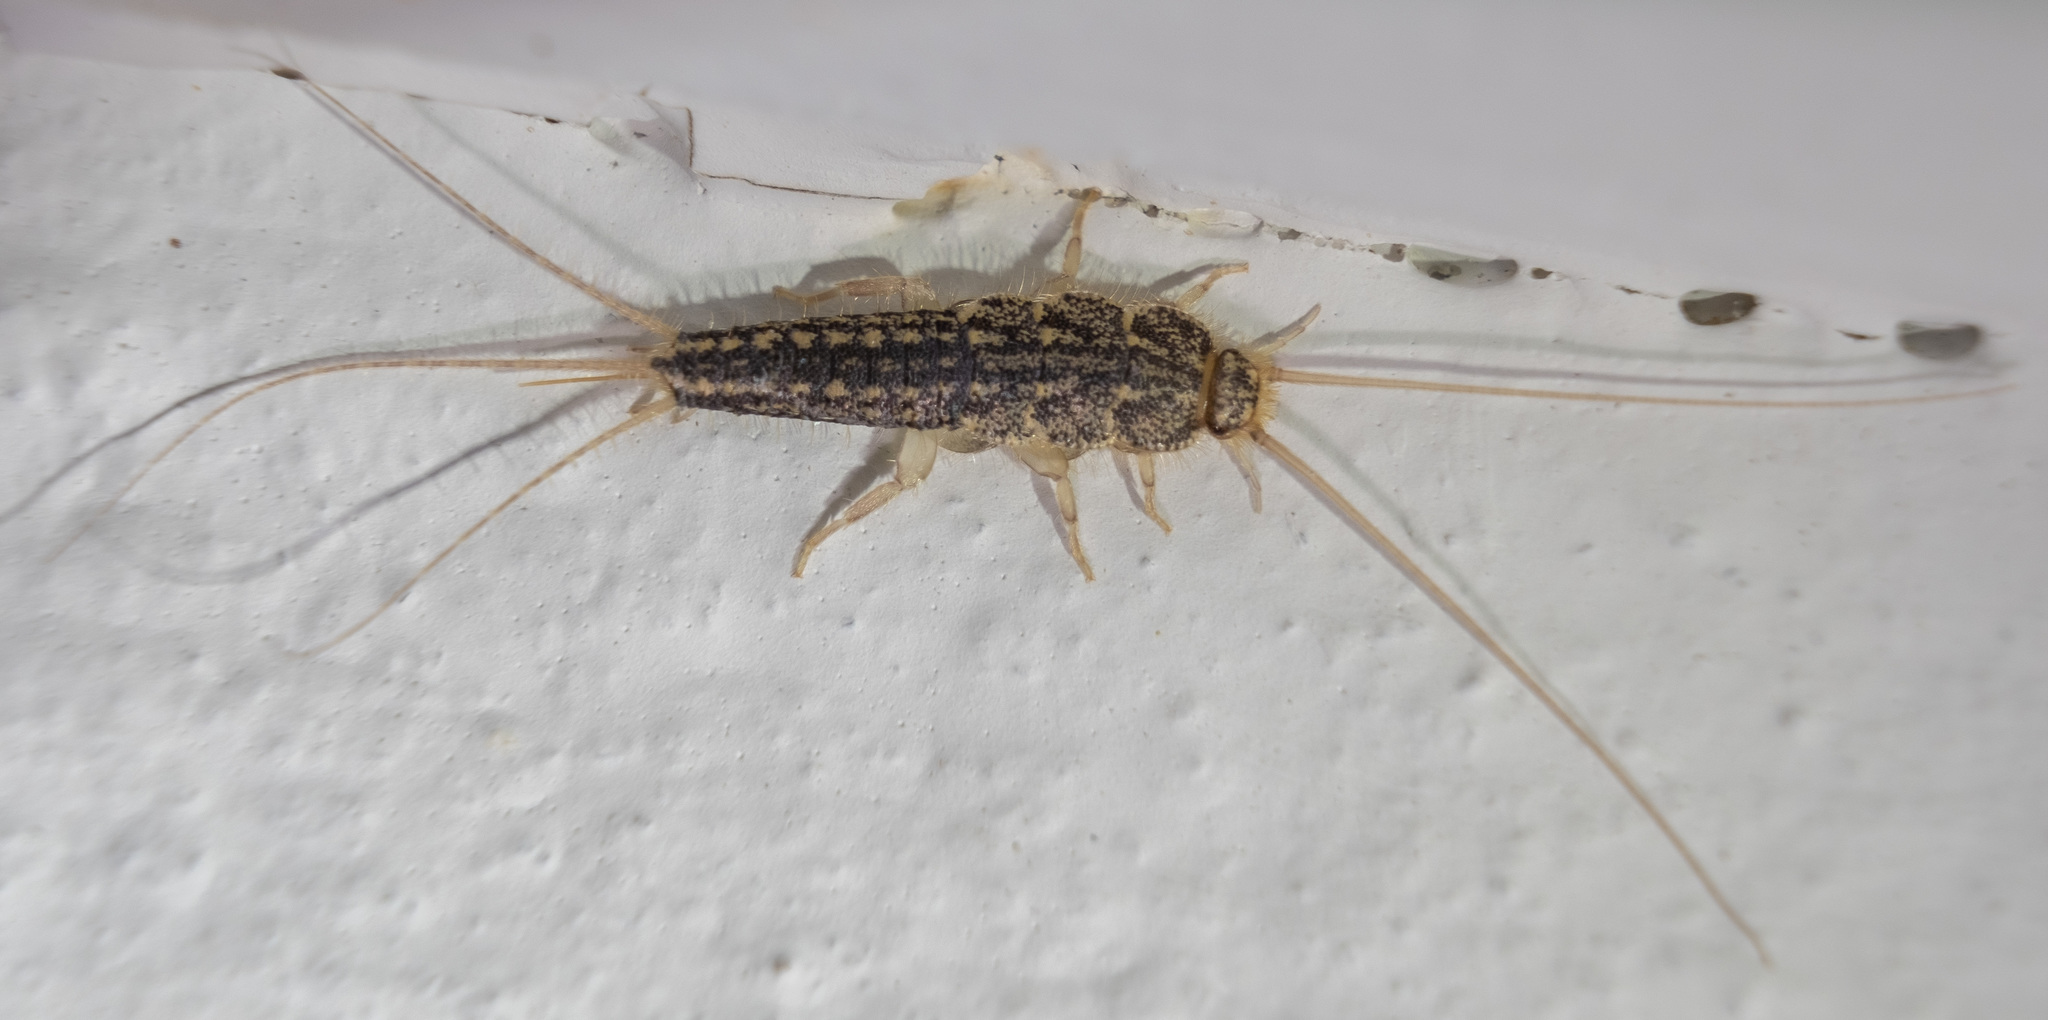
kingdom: Animalia
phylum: Arthropoda
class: Insecta
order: Zygentoma
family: Lepismatidae
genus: Ctenolepisma
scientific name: Ctenolepisma lineata
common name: Four-lined silverfish
